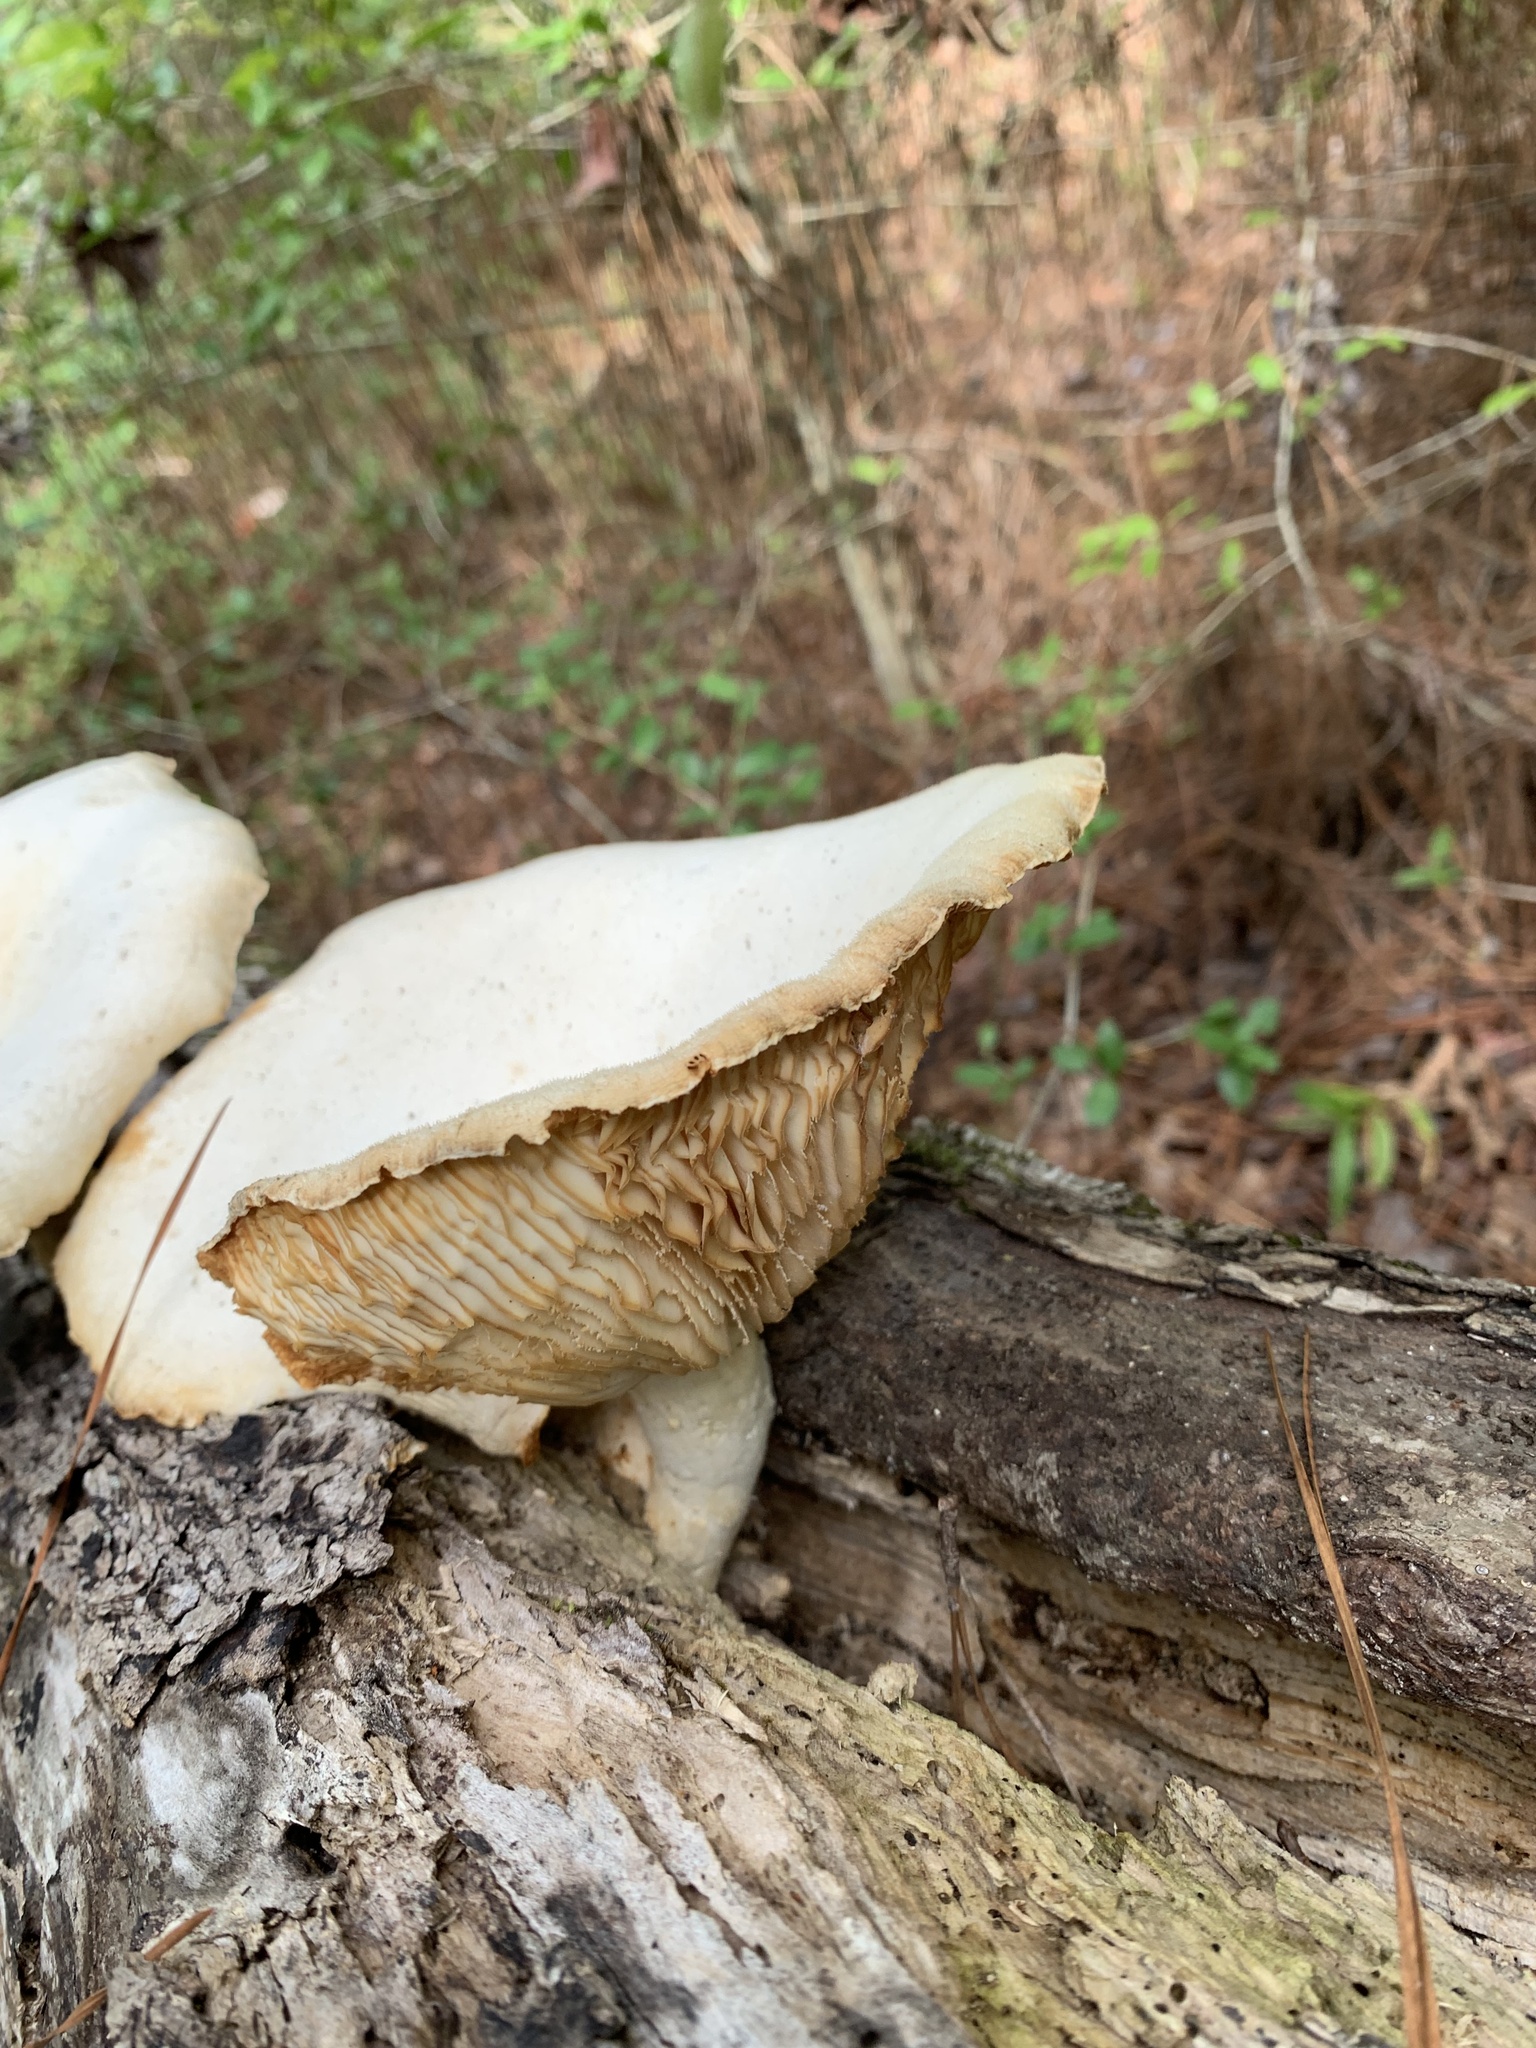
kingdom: Fungi
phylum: Basidiomycota
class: Agaricomycetes
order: Polyporales
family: Polyporaceae
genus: Lentinus
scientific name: Lentinus levis
